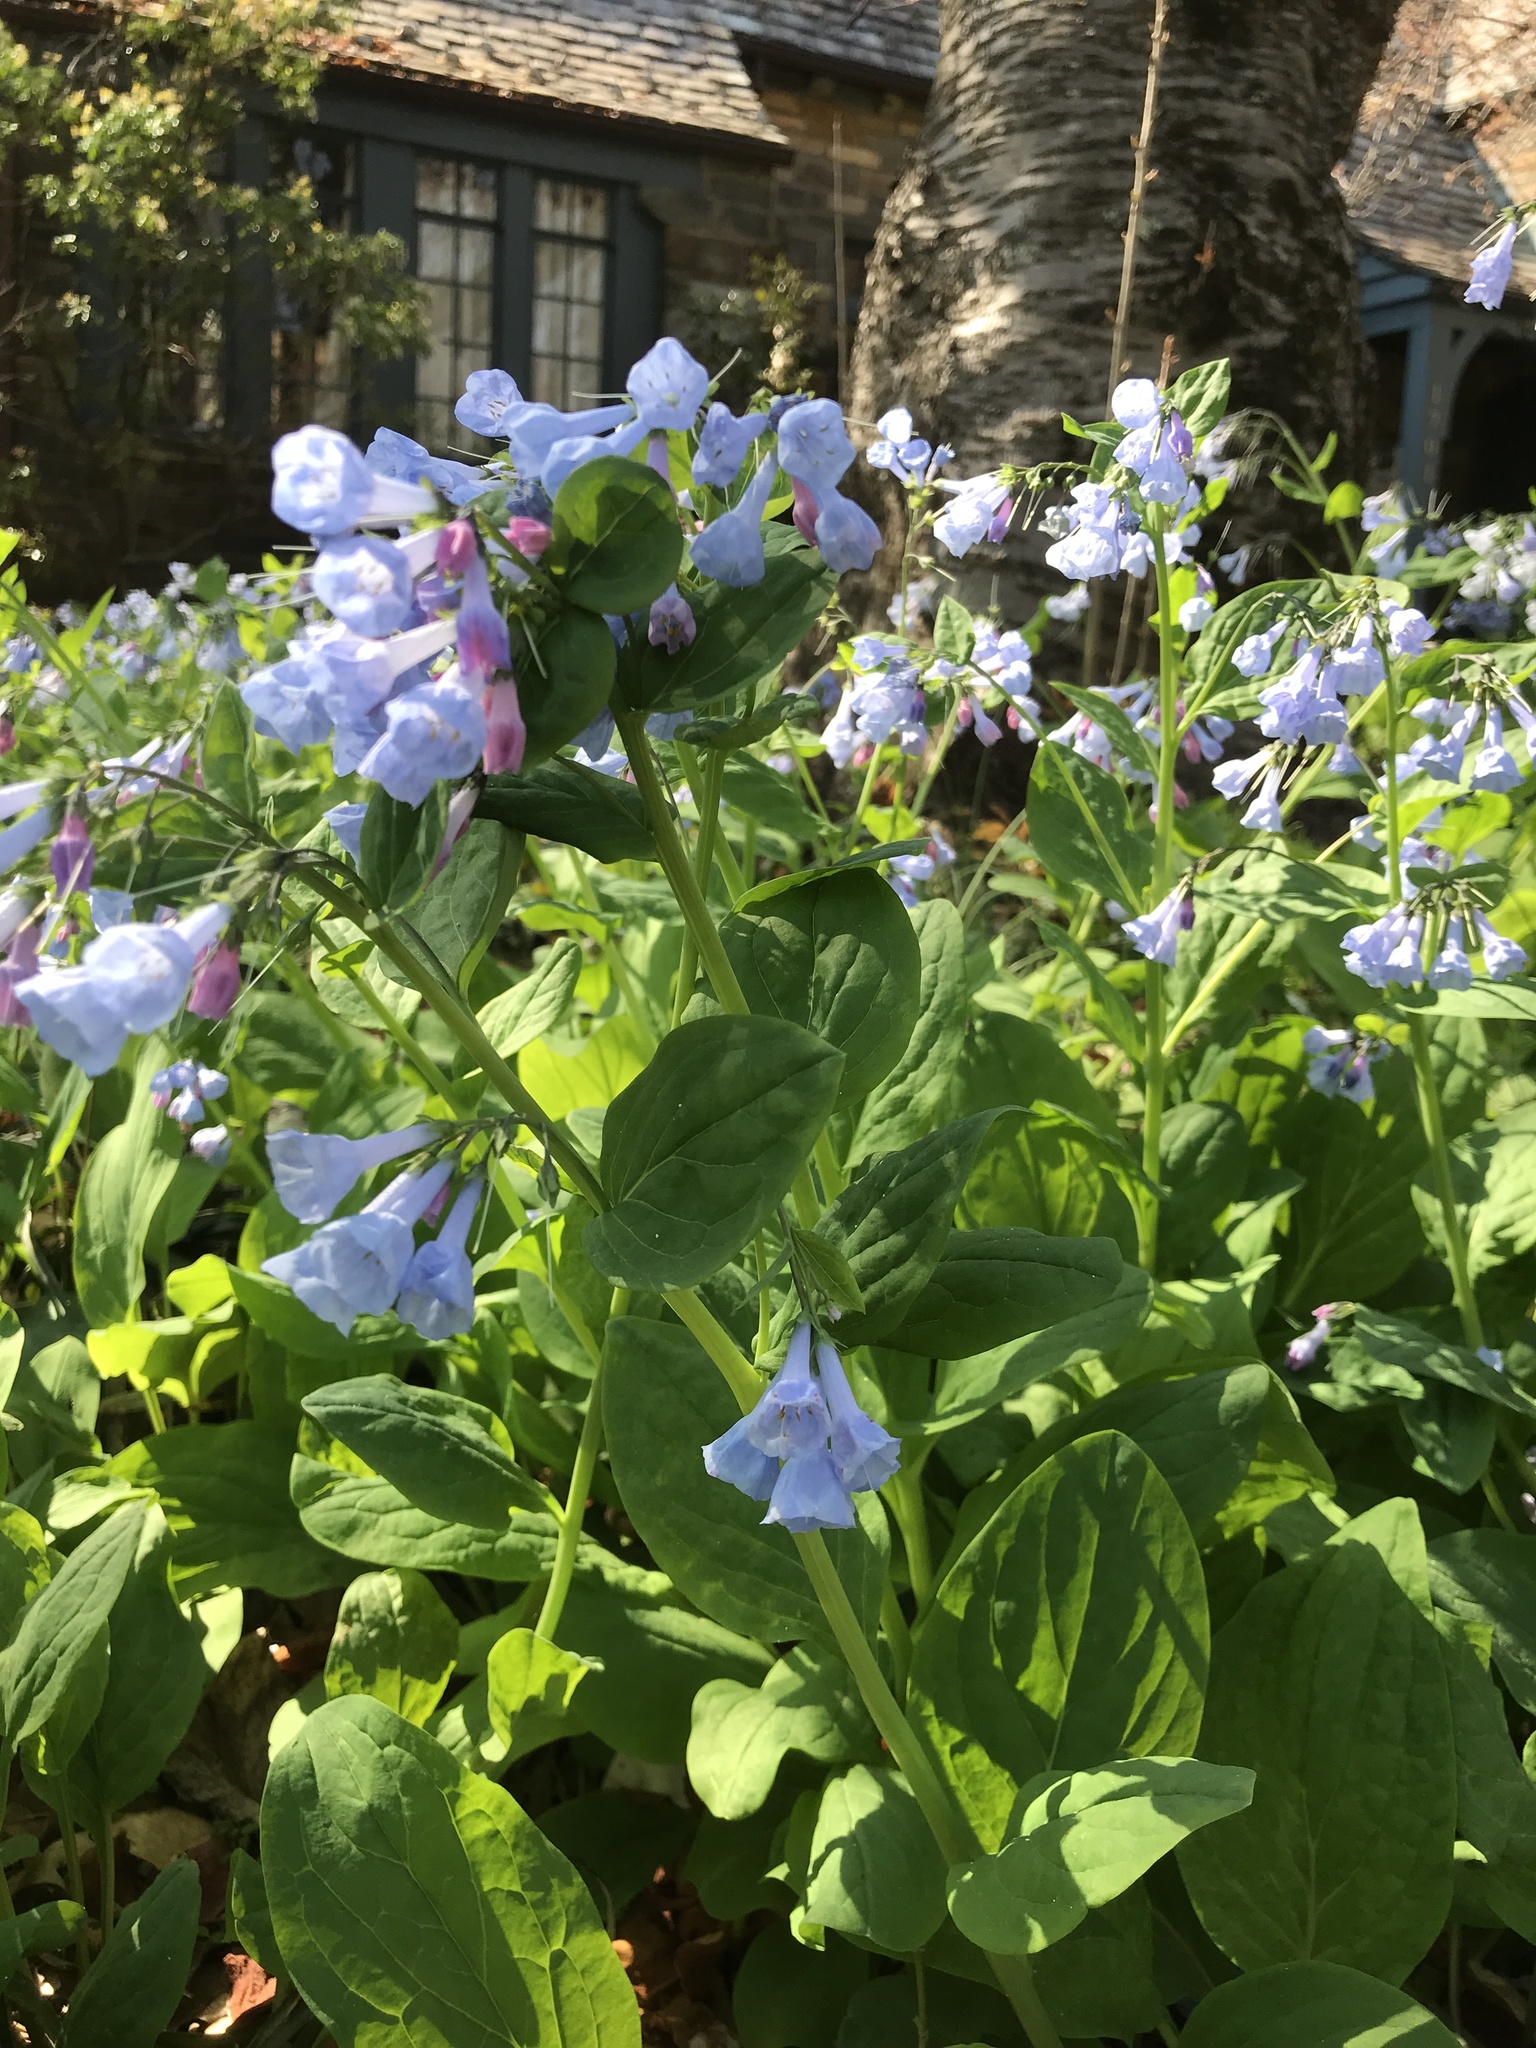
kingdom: Plantae
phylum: Tracheophyta
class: Magnoliopsida
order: Boraginales
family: Boraginaceae
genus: Mertensia
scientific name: Mertensia virginica
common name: Virginia bluebells
